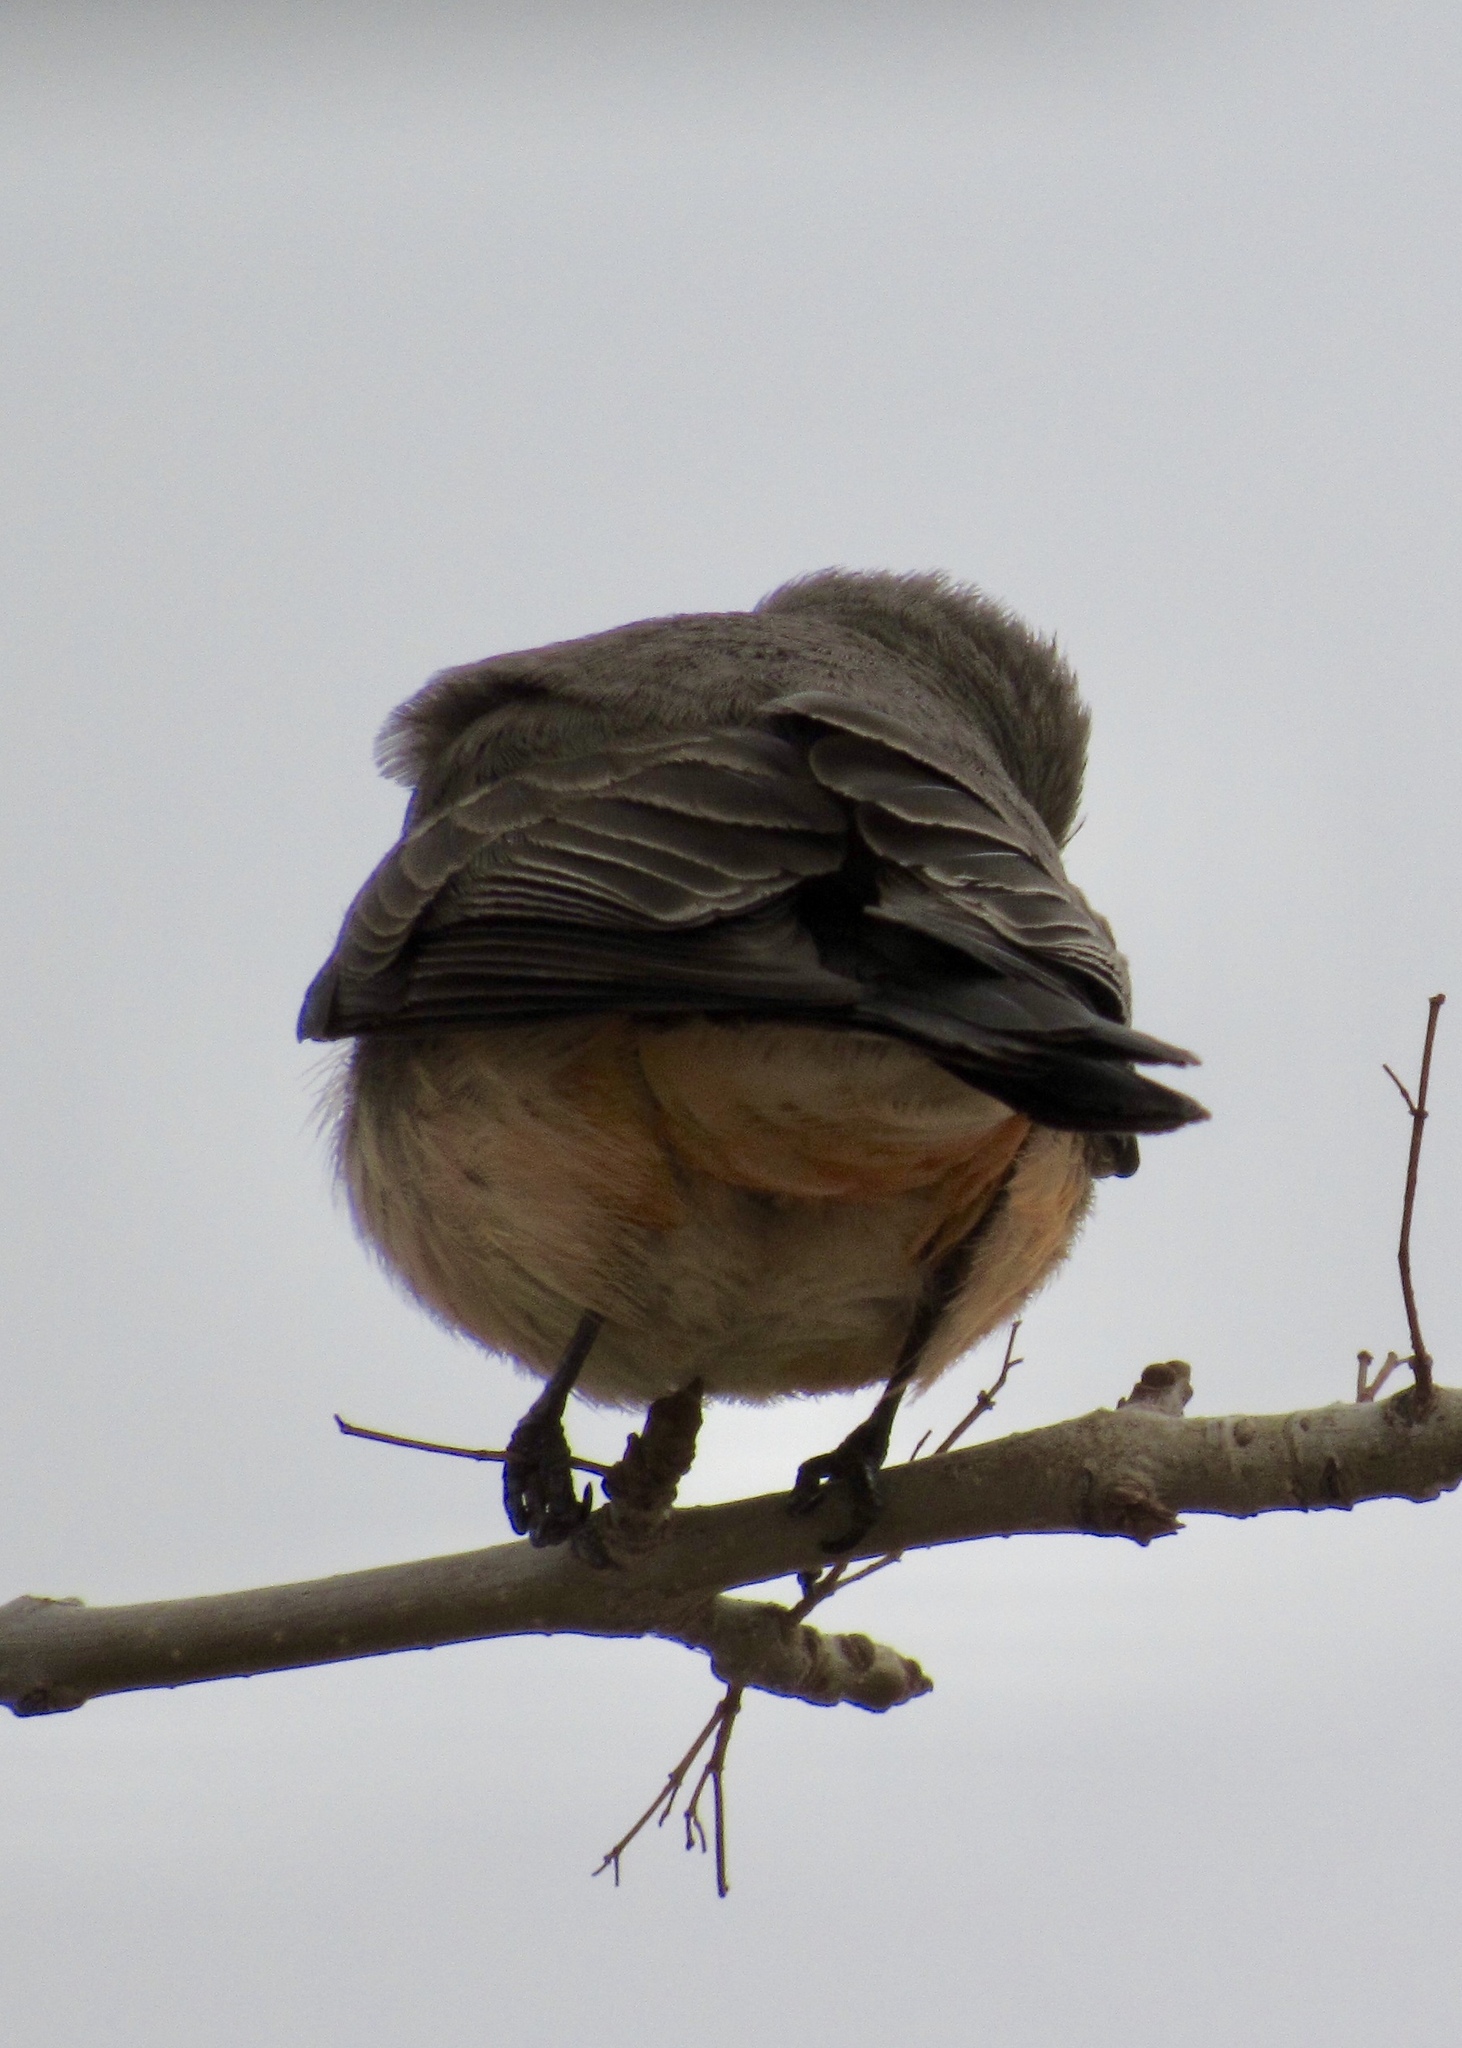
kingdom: Animalia
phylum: Chordata
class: Aves
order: Passeriformes
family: Tyrannidae
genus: Pyrocephalus
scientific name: Pyrocephalus rubinus
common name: Vermilion flycatcher
